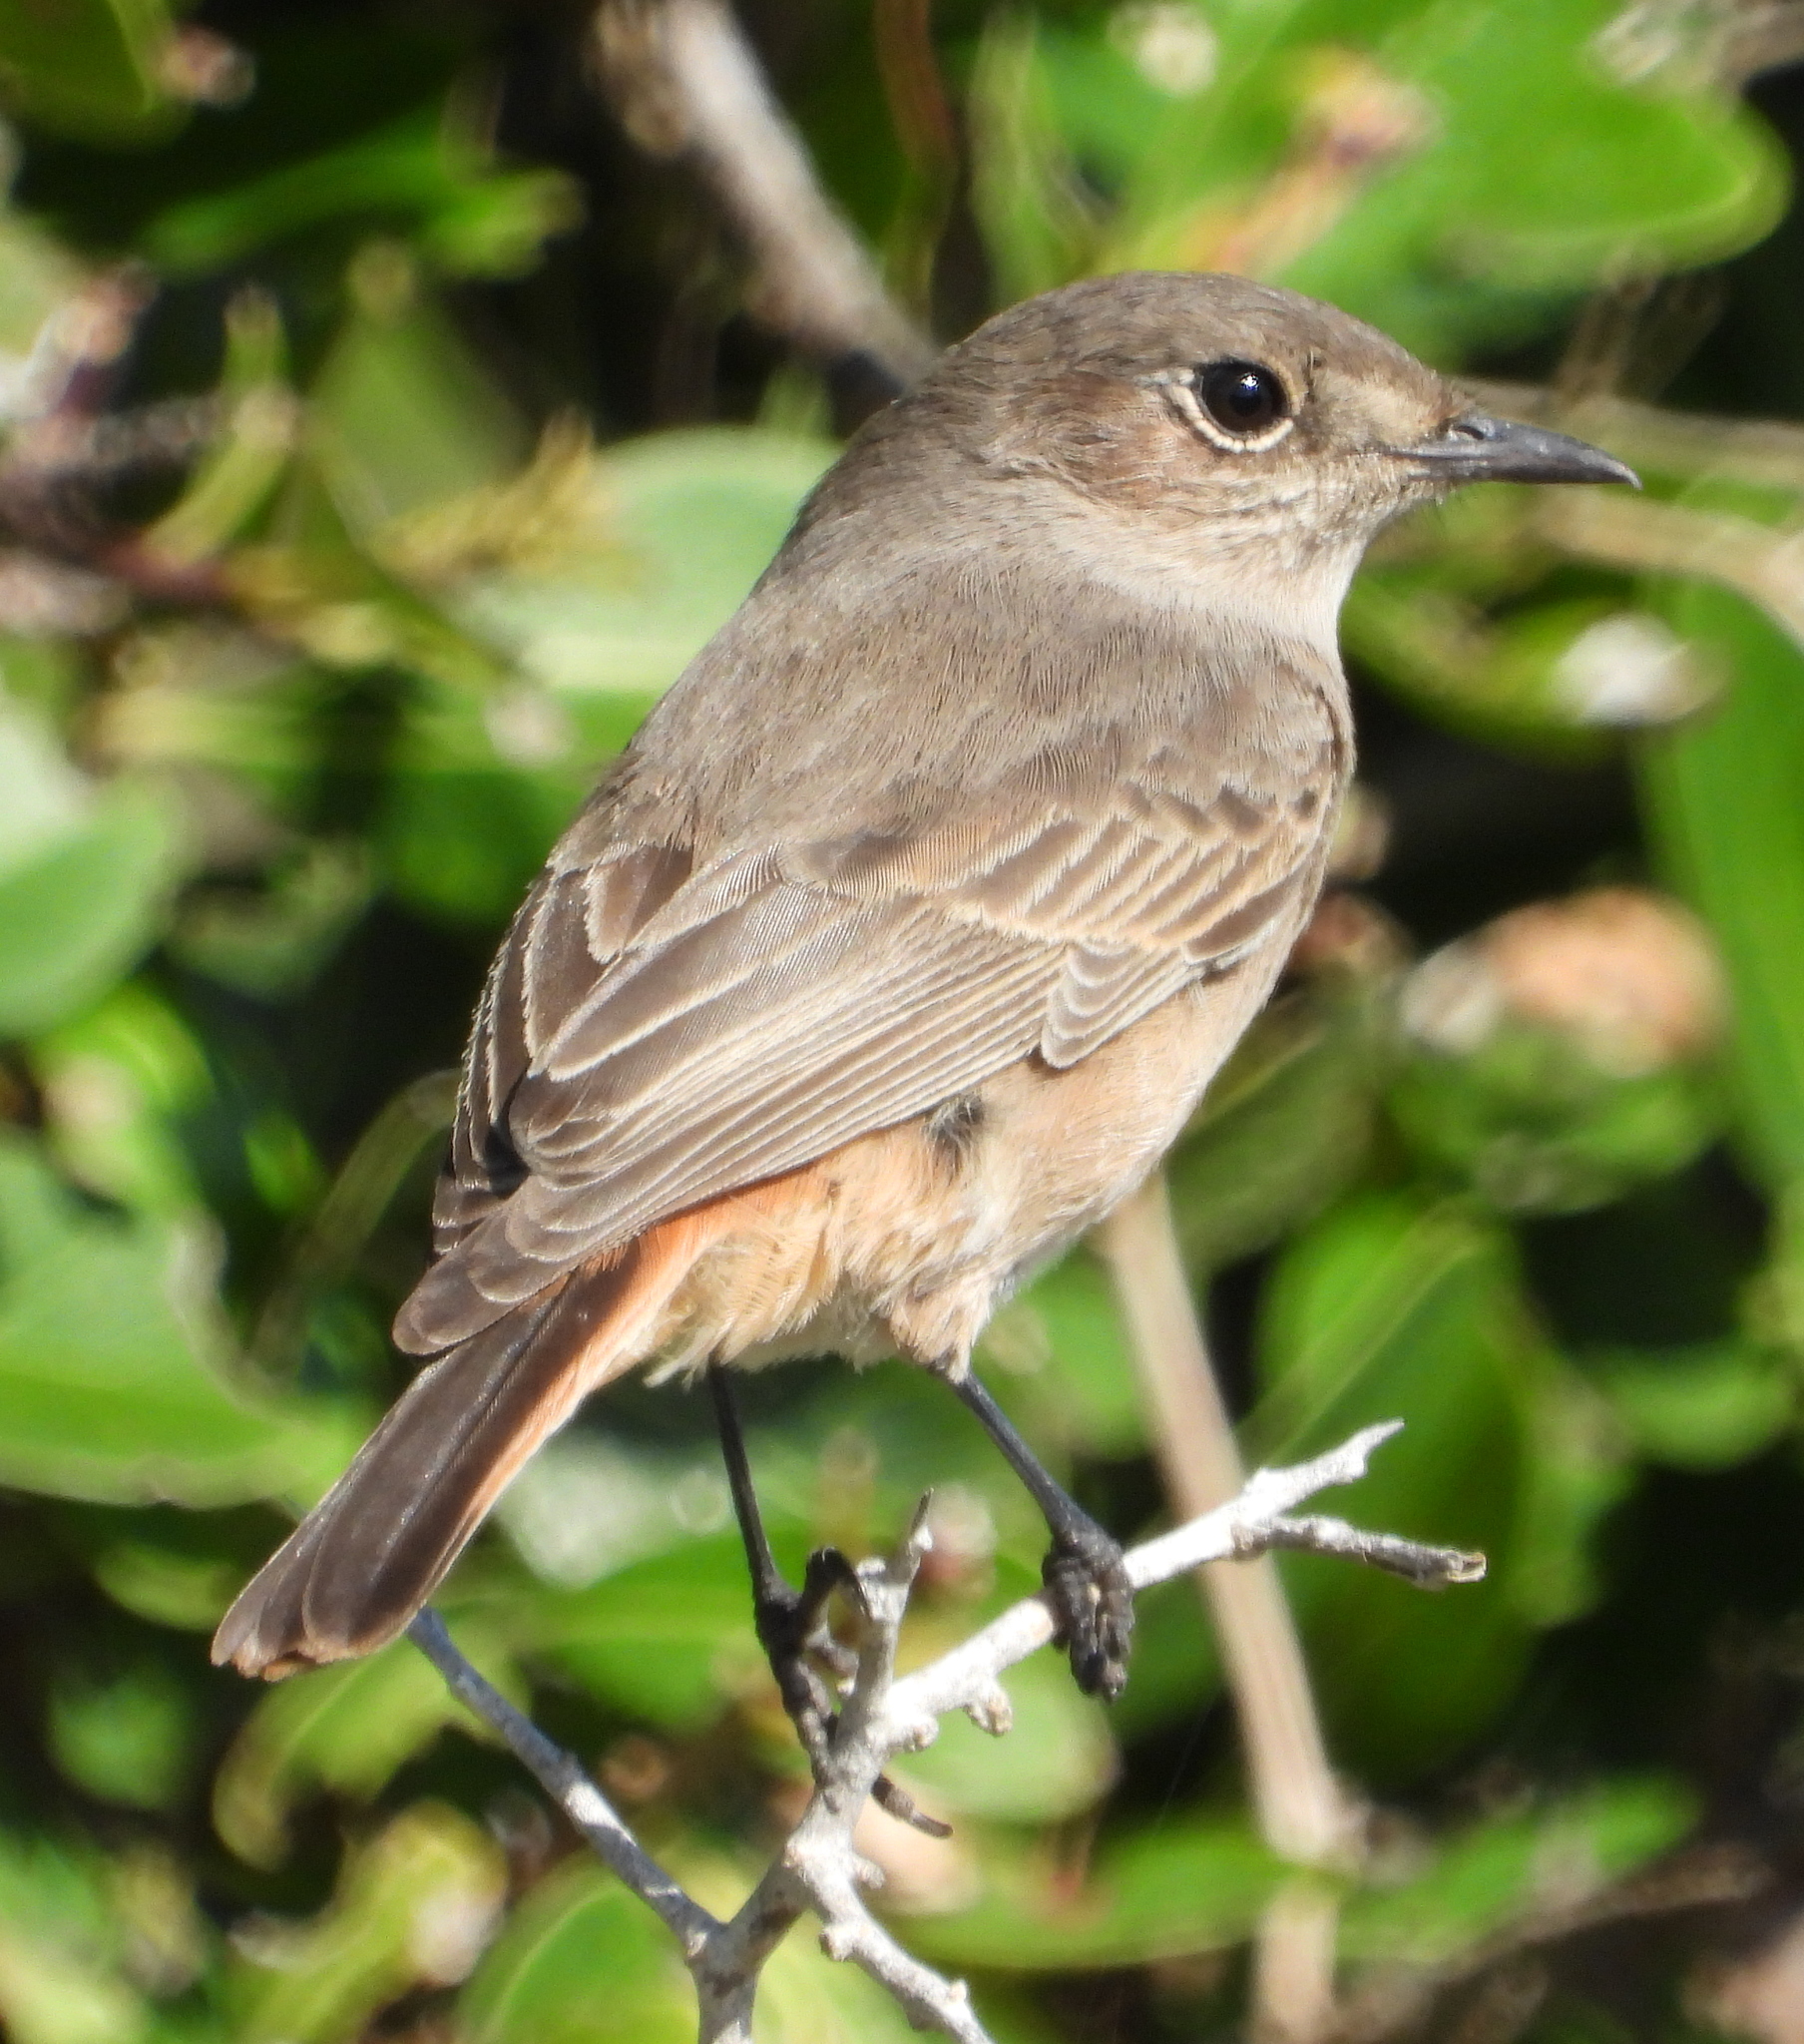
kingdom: Animalia
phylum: Chordata
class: Aves
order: Passeriformes
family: Muscicapidae
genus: Oenanthe
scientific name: Oenanthe familiaris
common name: Familiar chat
